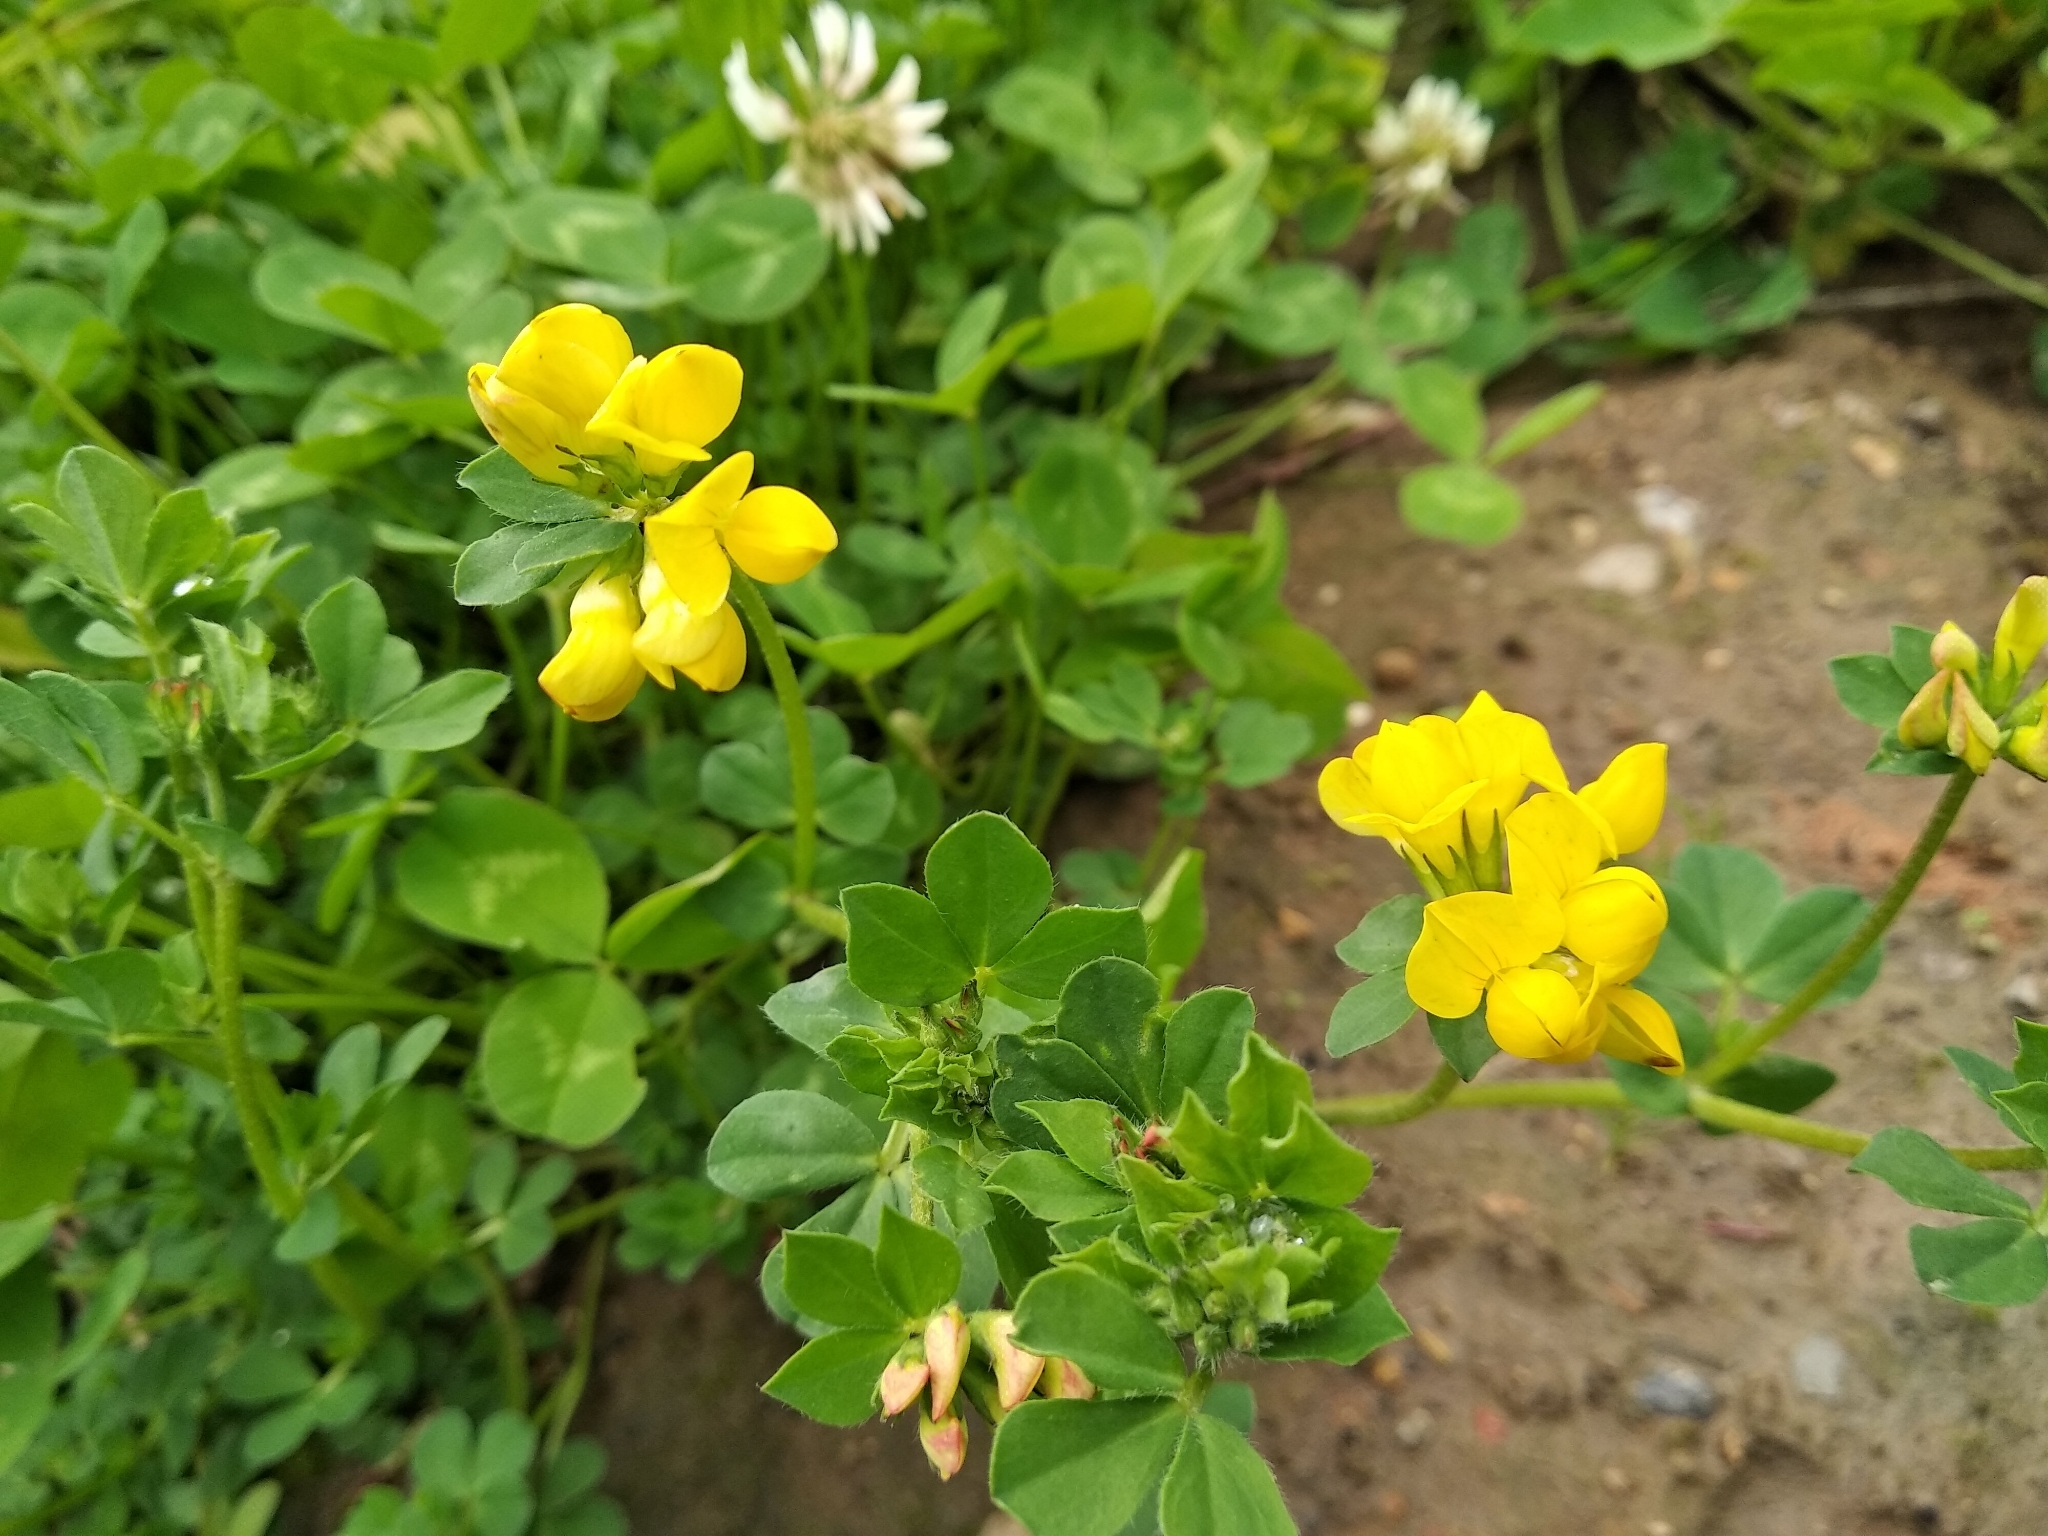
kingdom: Plantae
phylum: Tracheophyta
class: Magnoliopsida
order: Fabales
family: Fabaceae
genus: Lotus
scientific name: Lotus corniculatus
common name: Common bird's-foot-trefoil
